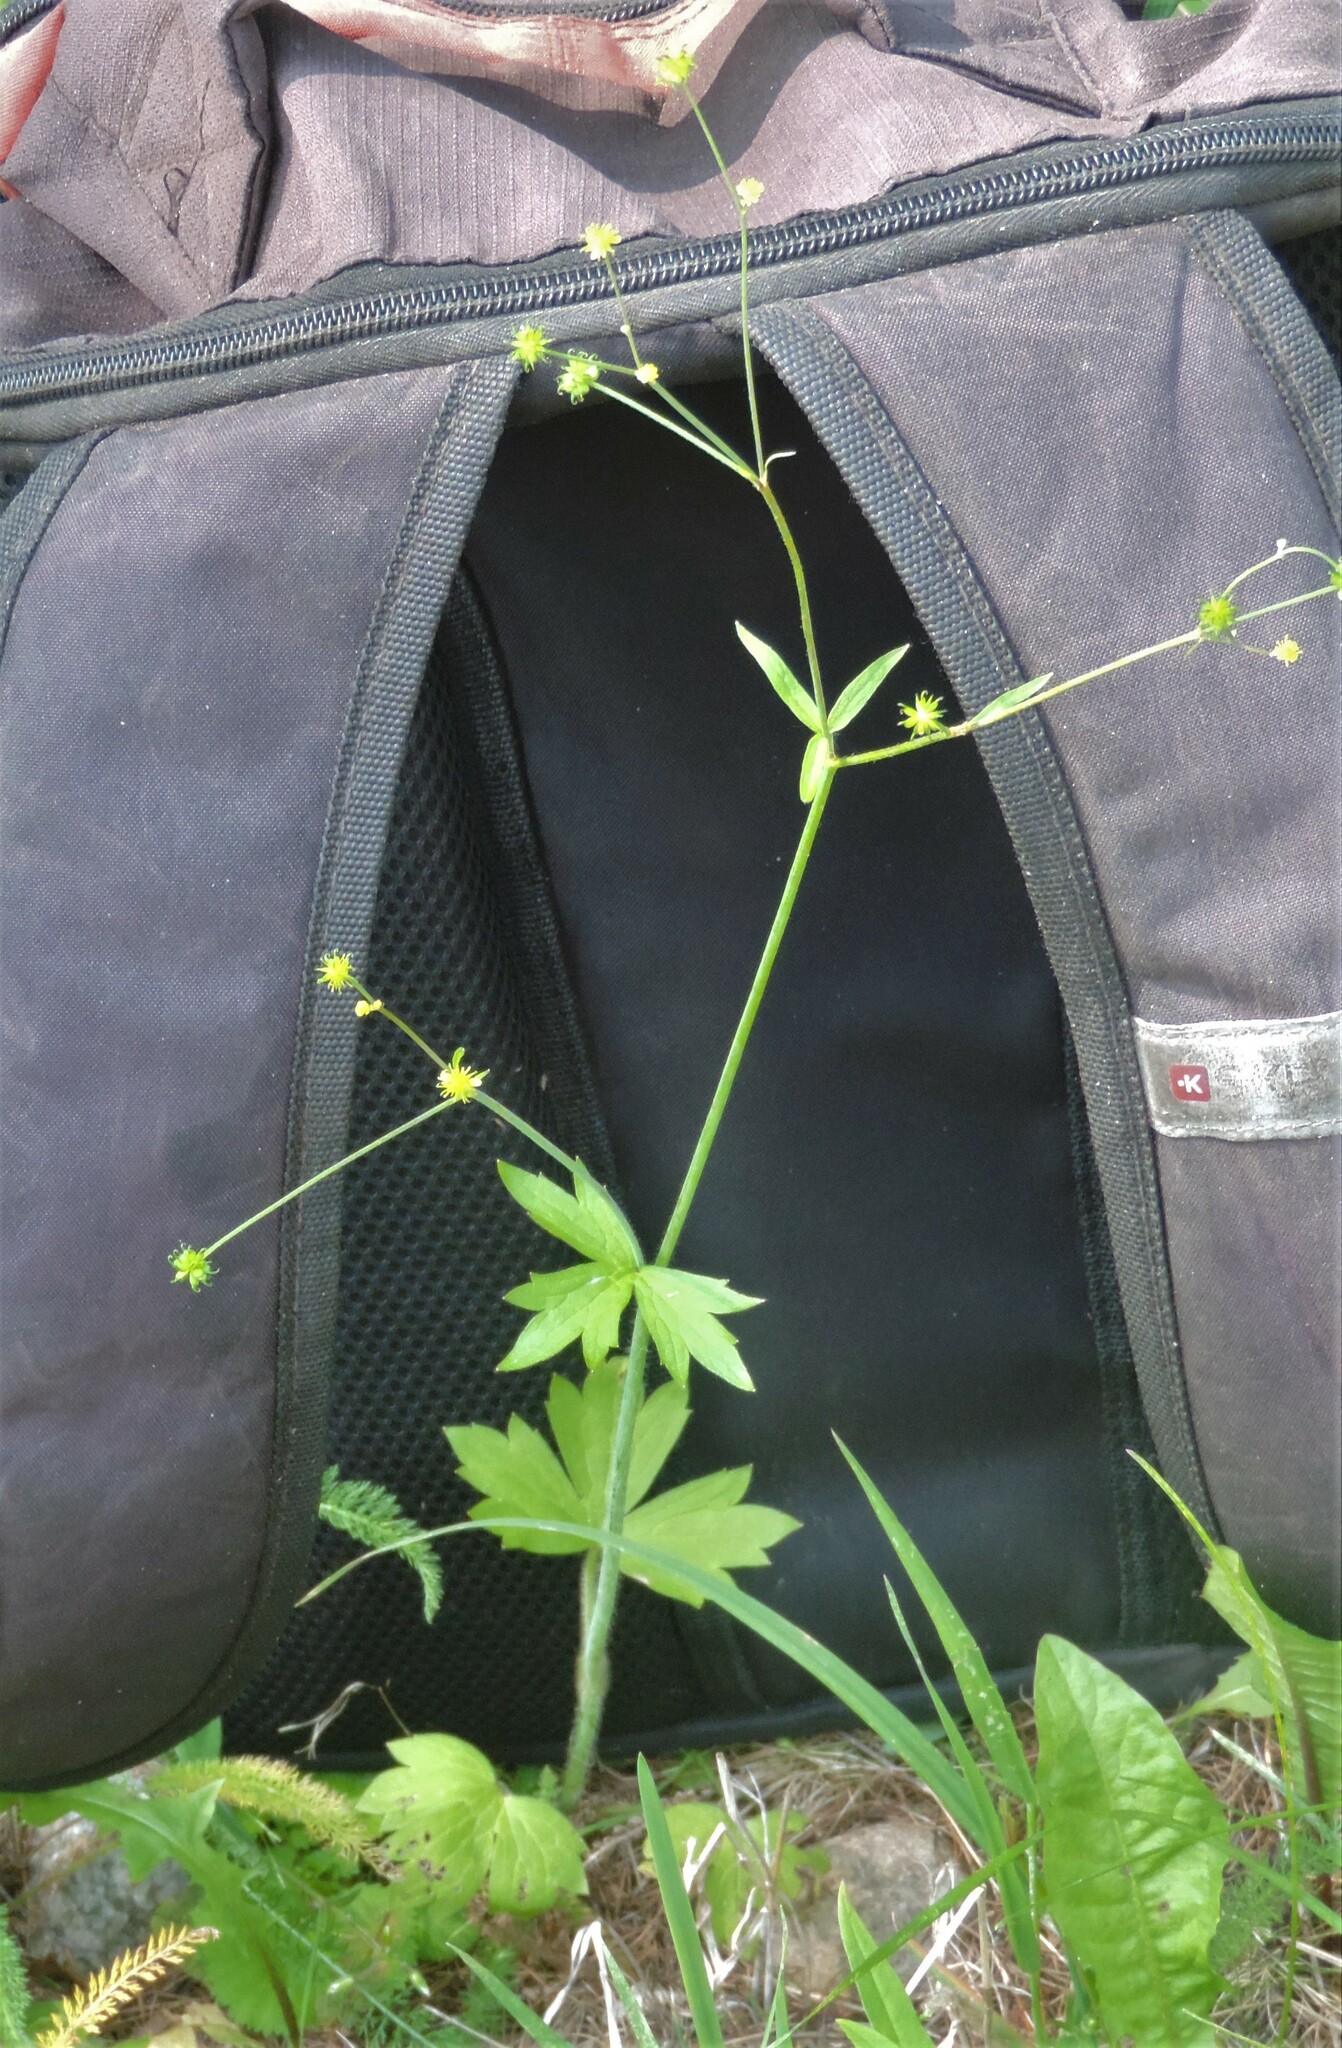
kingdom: Plantae
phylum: Tracheophyta
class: Magnoliopsida
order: Ranunculales
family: Ranunculaceae
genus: Ranunculus
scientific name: Ranunculus uncinatus
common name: Little buttercup
